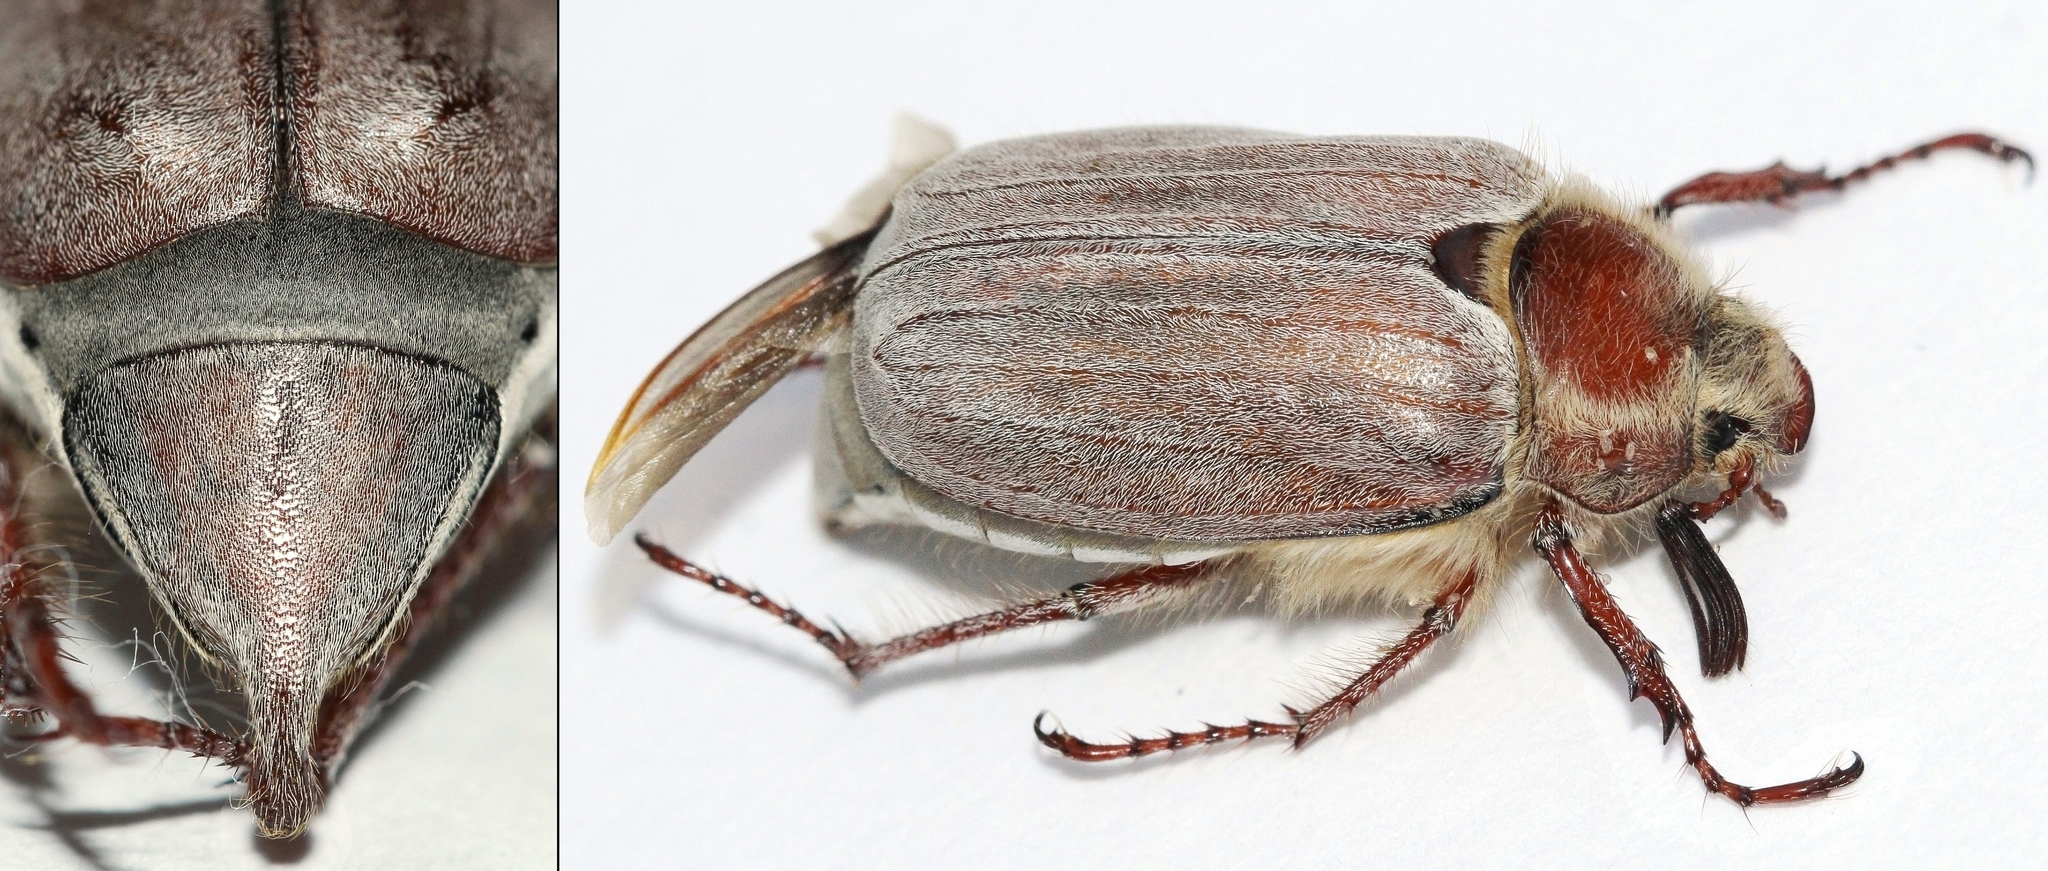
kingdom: Animalia
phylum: Arthropoda
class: Insecta
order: Coleoptera
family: Scarabaeidae
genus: Melolontha
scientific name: Melolontha hippocastani
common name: Chestnut cockchafer
